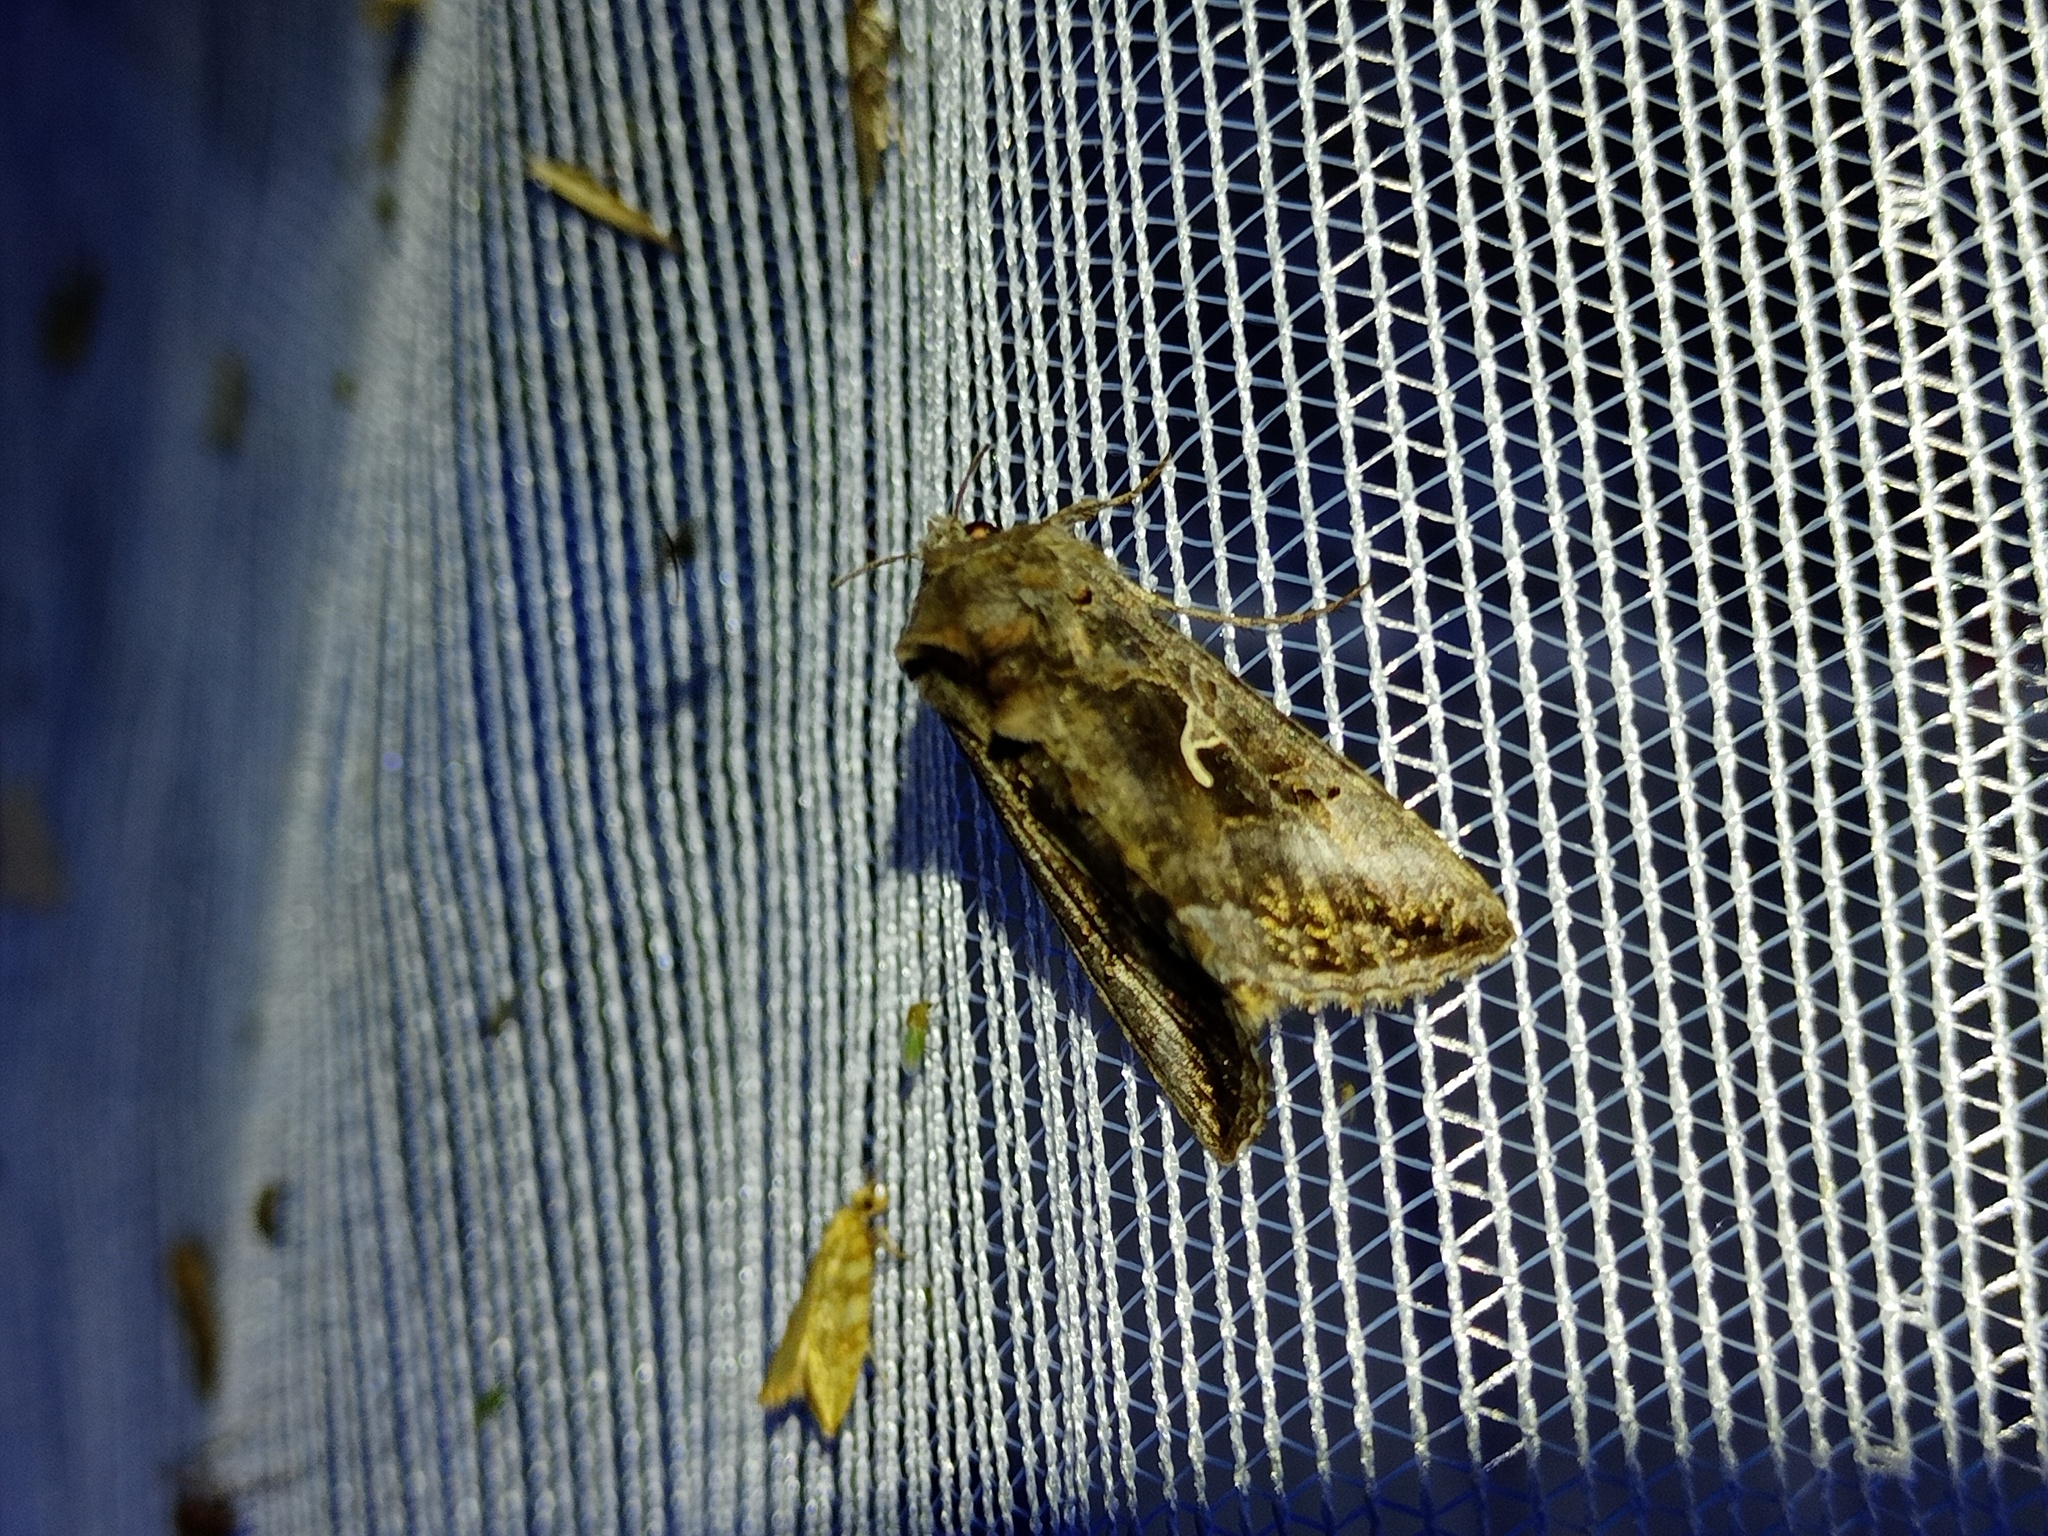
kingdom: Animalia
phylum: Arthropoda
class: Insecta
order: Lepidoptera
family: Noctuidae
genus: Autographa
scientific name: Autographa gamma
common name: Silver y
